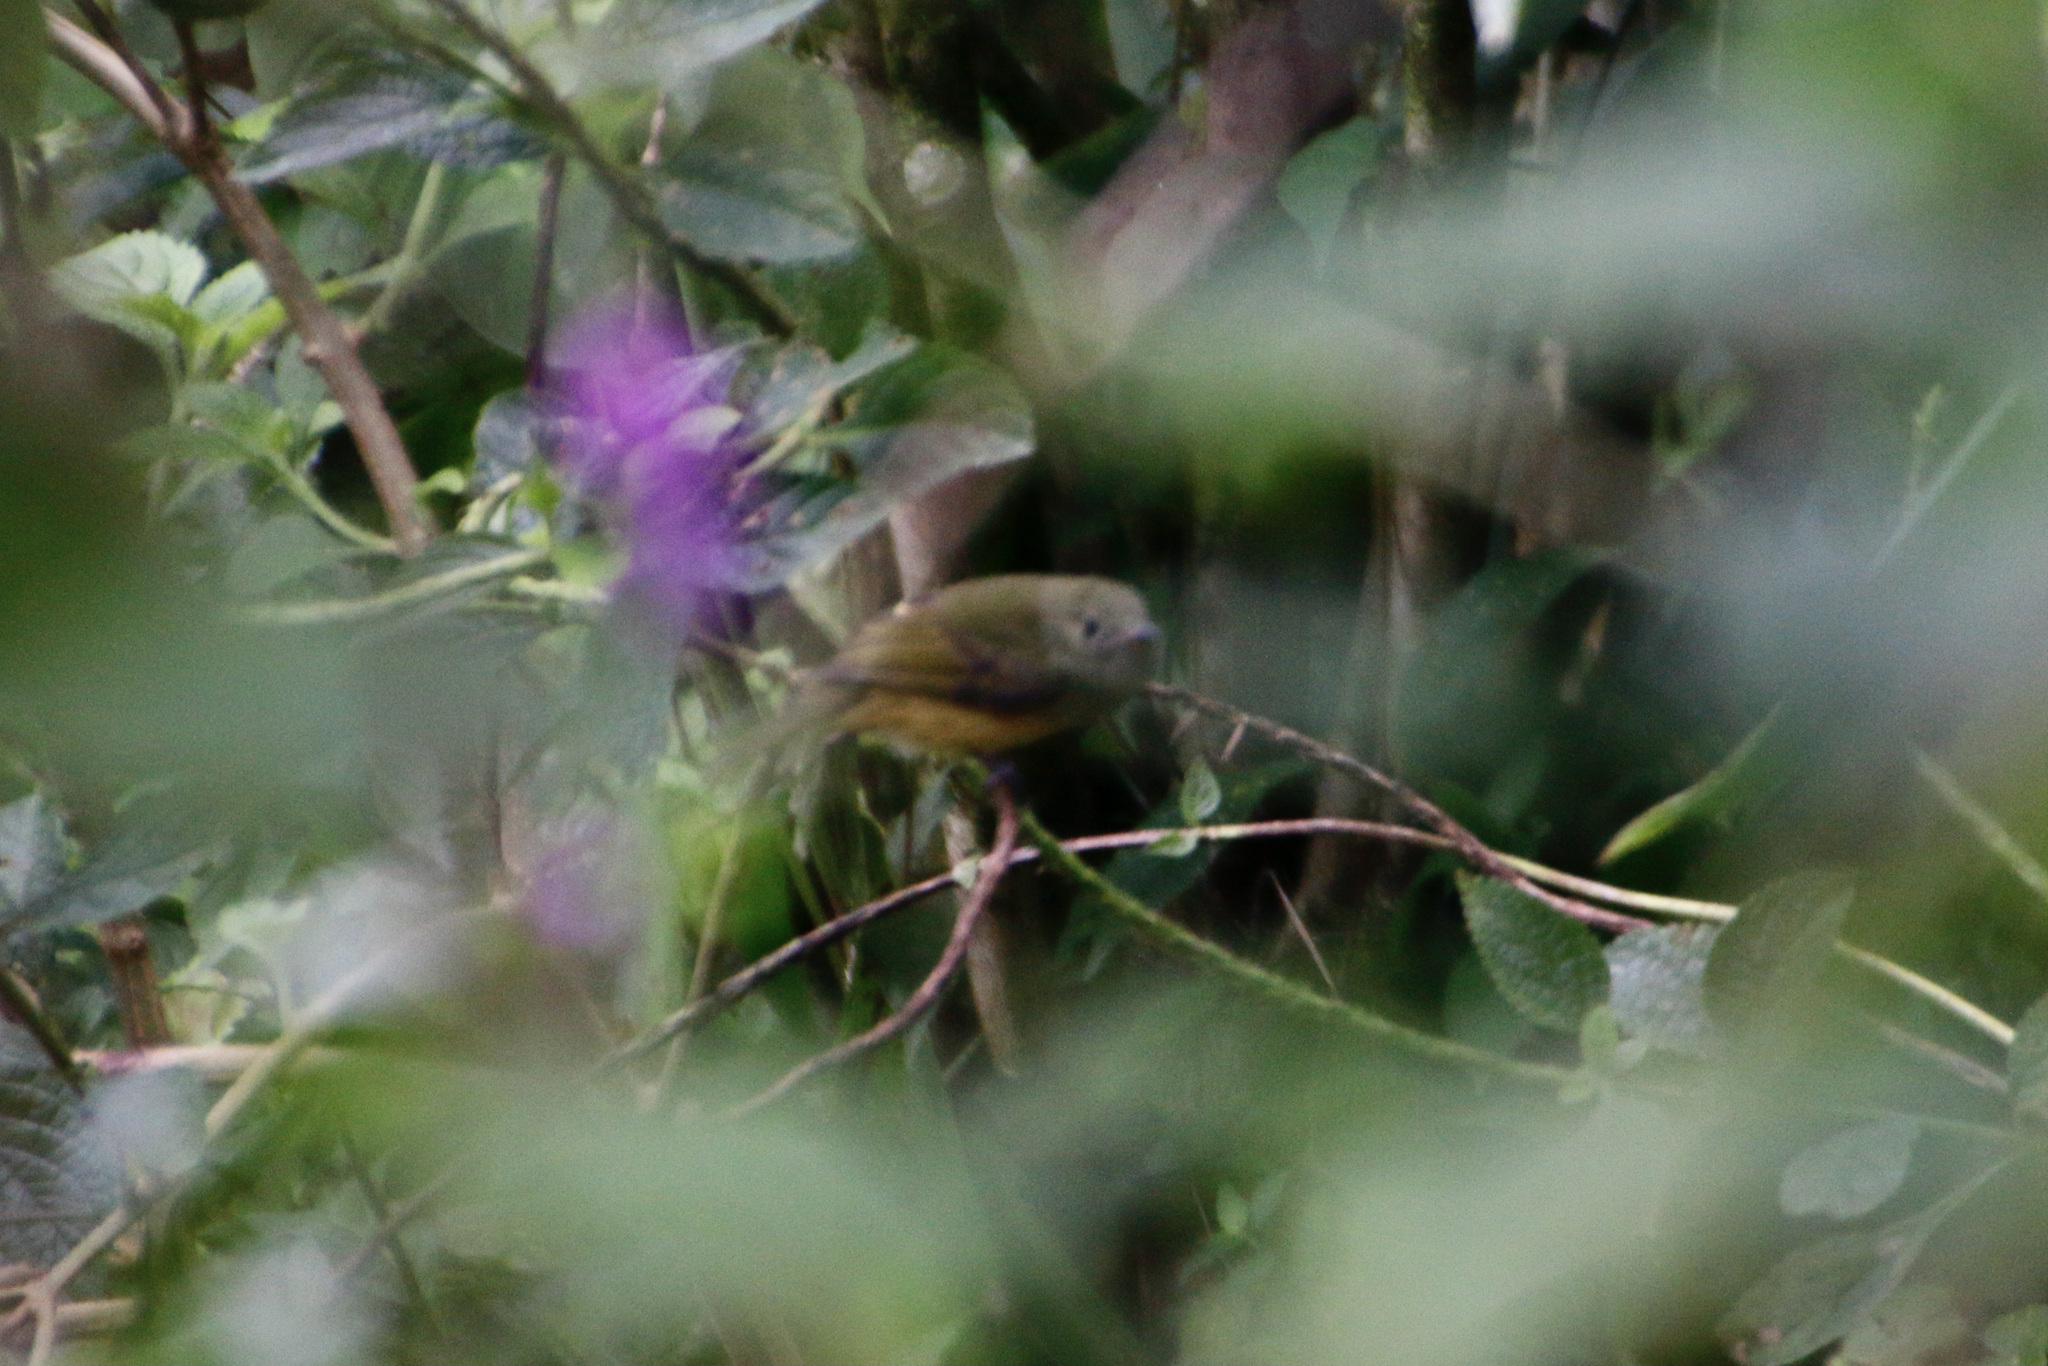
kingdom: Animalia
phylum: Chordata
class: Aves
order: Passeriformes
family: Tyrannidae
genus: Mionectes
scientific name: Mionectes oleagineus
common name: Ochre-bellied flycatcher
